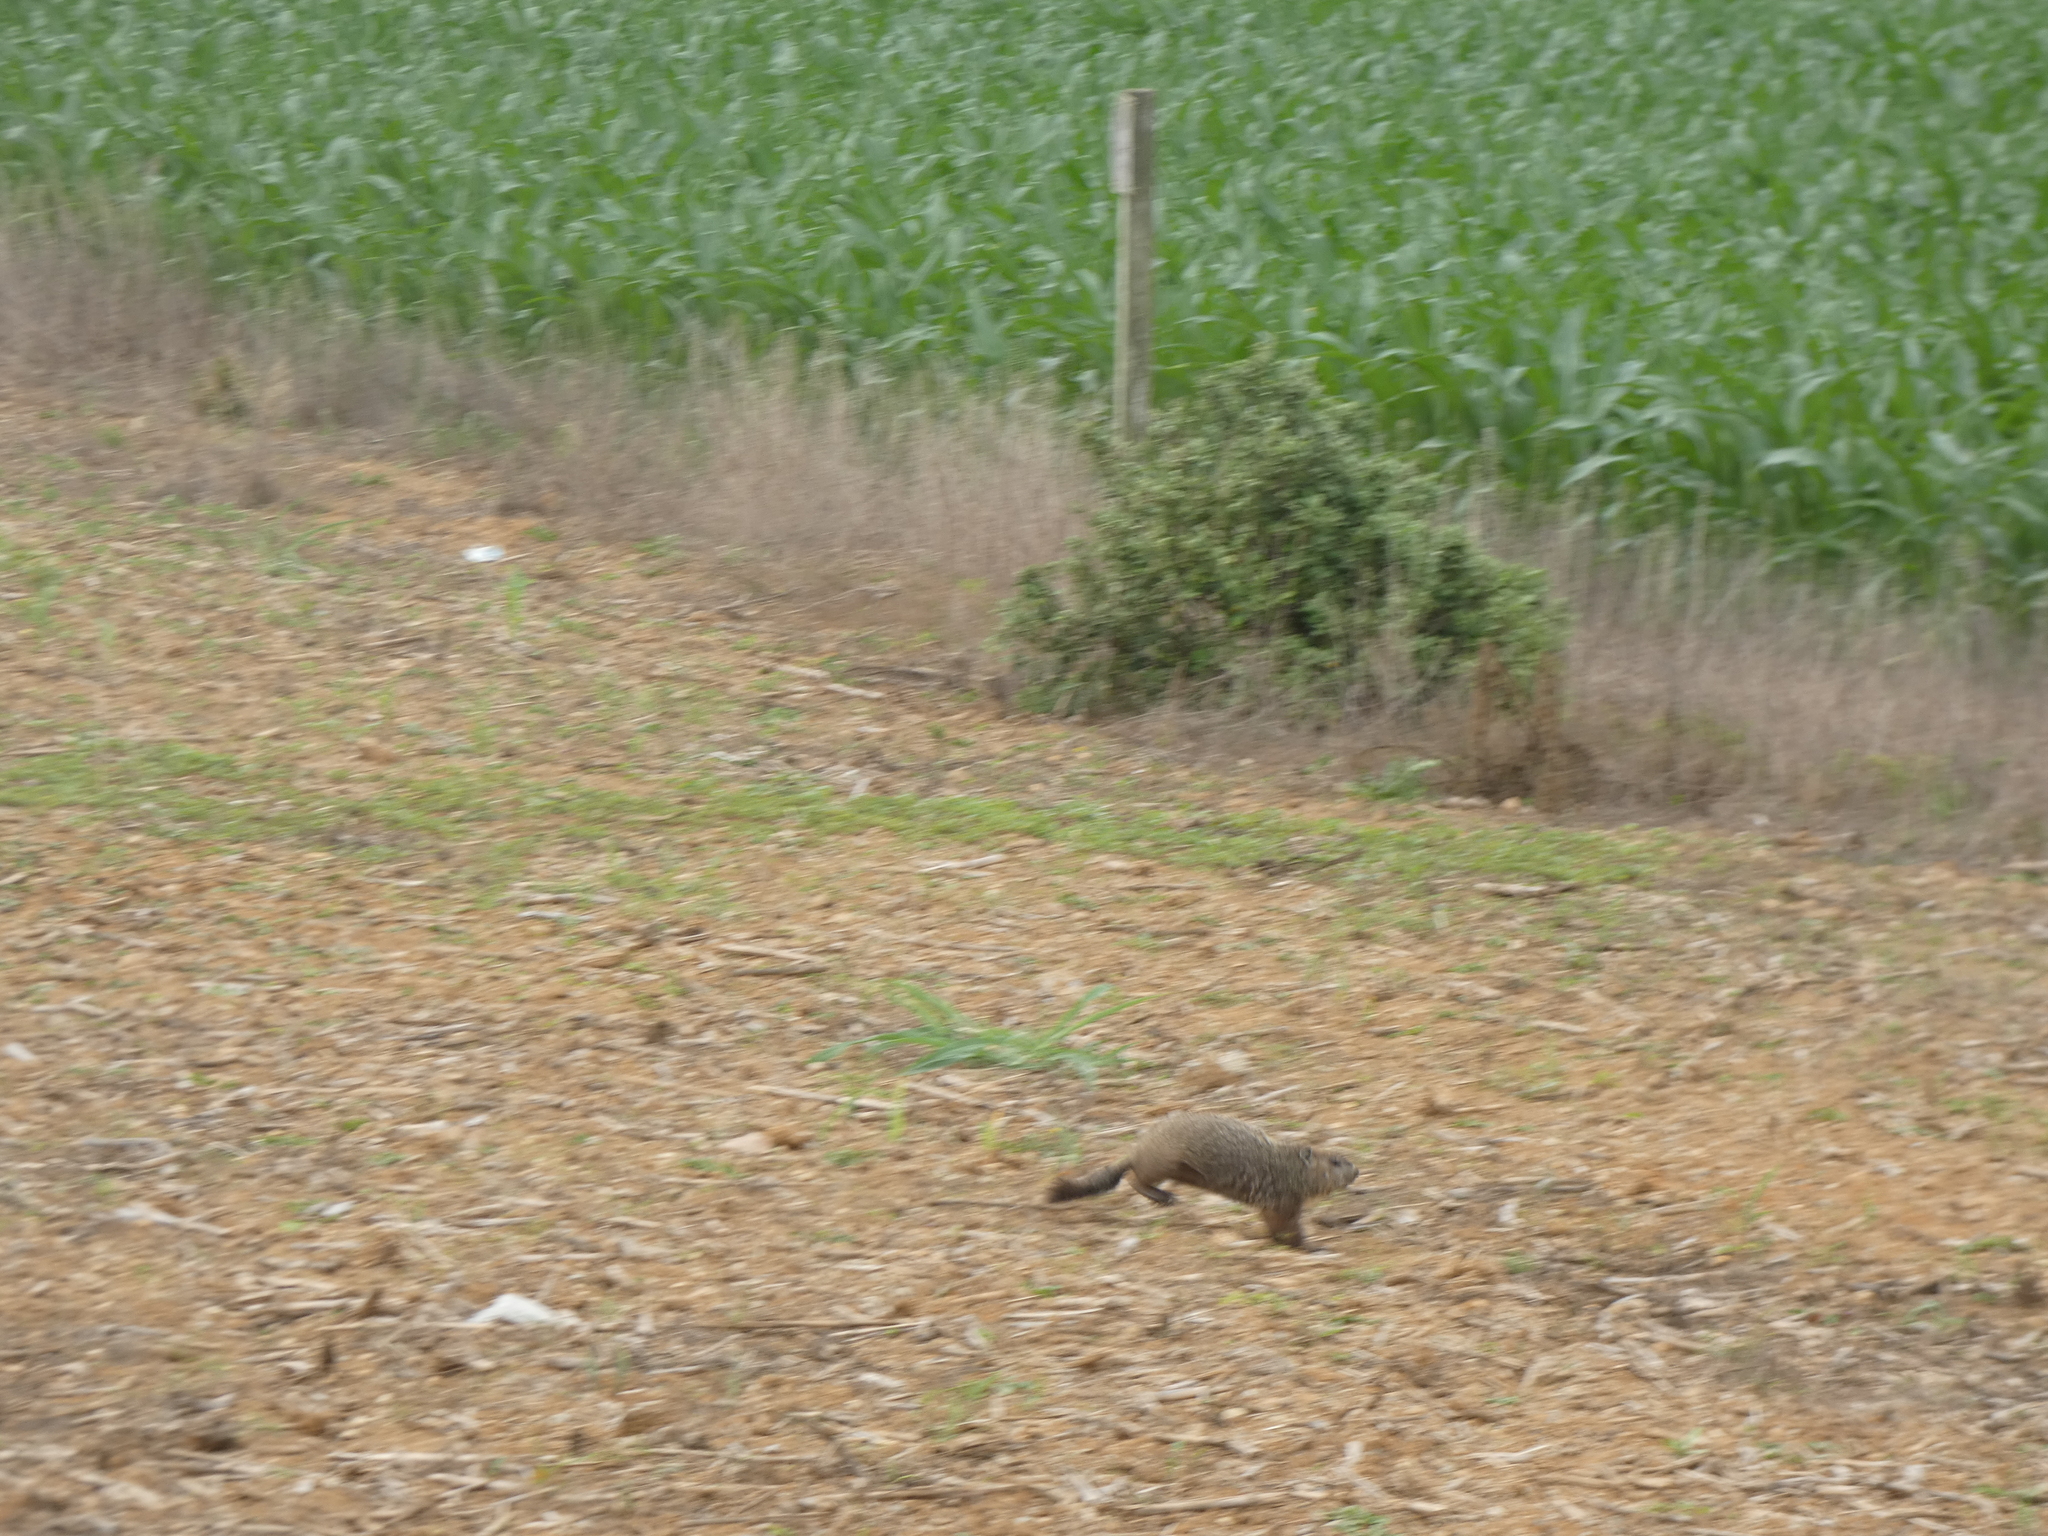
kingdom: Animalia
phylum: Chordata
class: Mammalia
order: Rodentia
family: Sciuridae
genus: Marmota
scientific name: Marmota monax
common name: Groundhog
